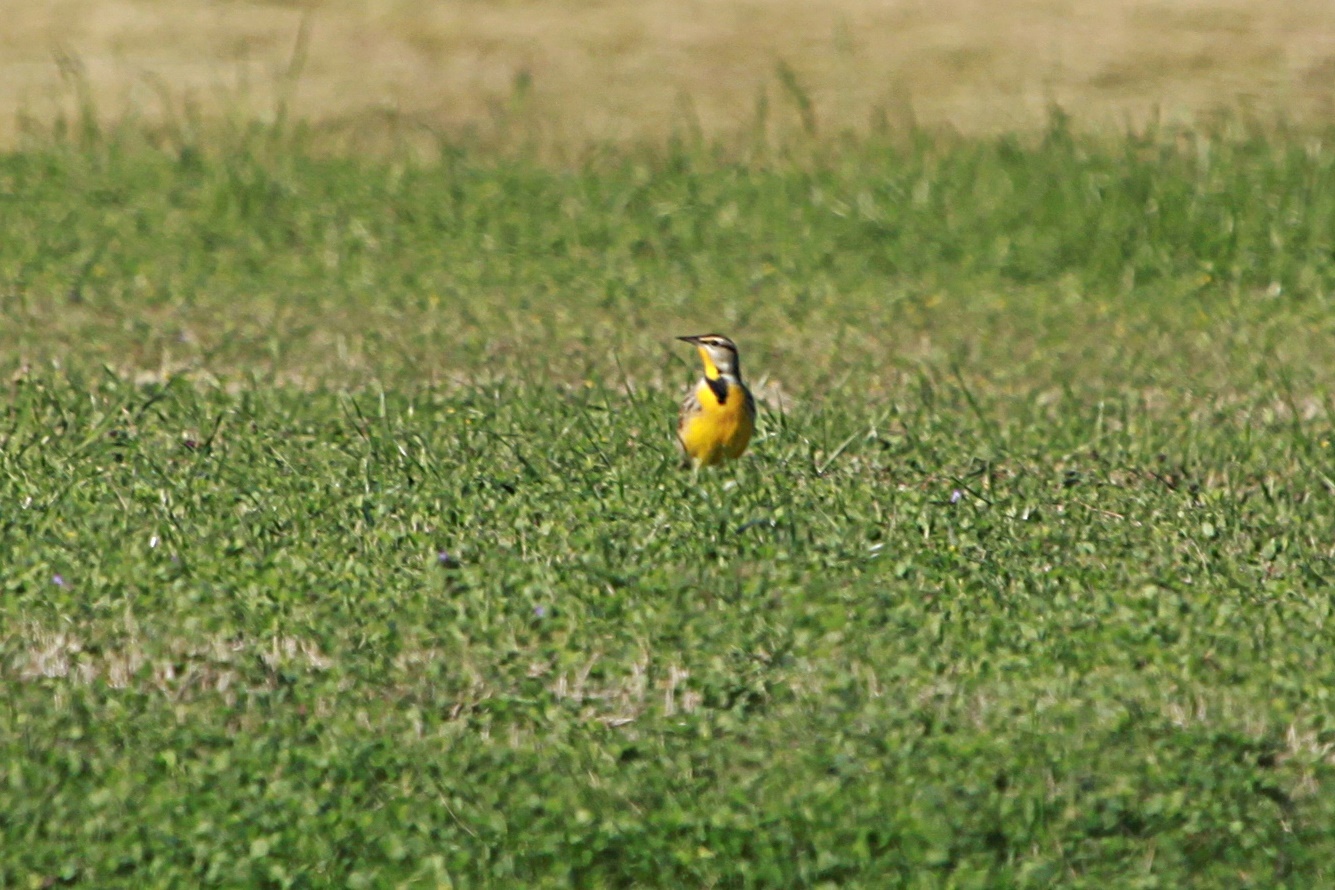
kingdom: Animalia
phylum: Chordata
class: Aves
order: Passeriformes
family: Icteridae
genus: Sturnella
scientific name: Sturnella magna
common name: Eastern meadowlark
